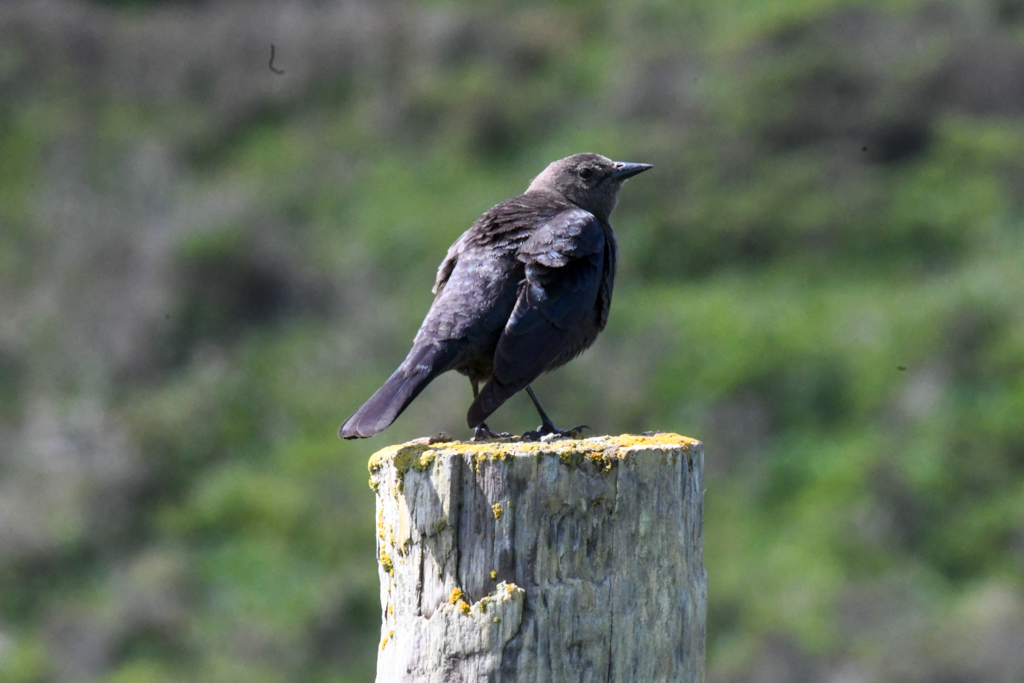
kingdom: Animalia
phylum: Chordata
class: Aves
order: Passeriformes
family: Icteridae
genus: Euphagus
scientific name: Euphagus cyanocephalus
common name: Brewer's blackbird
